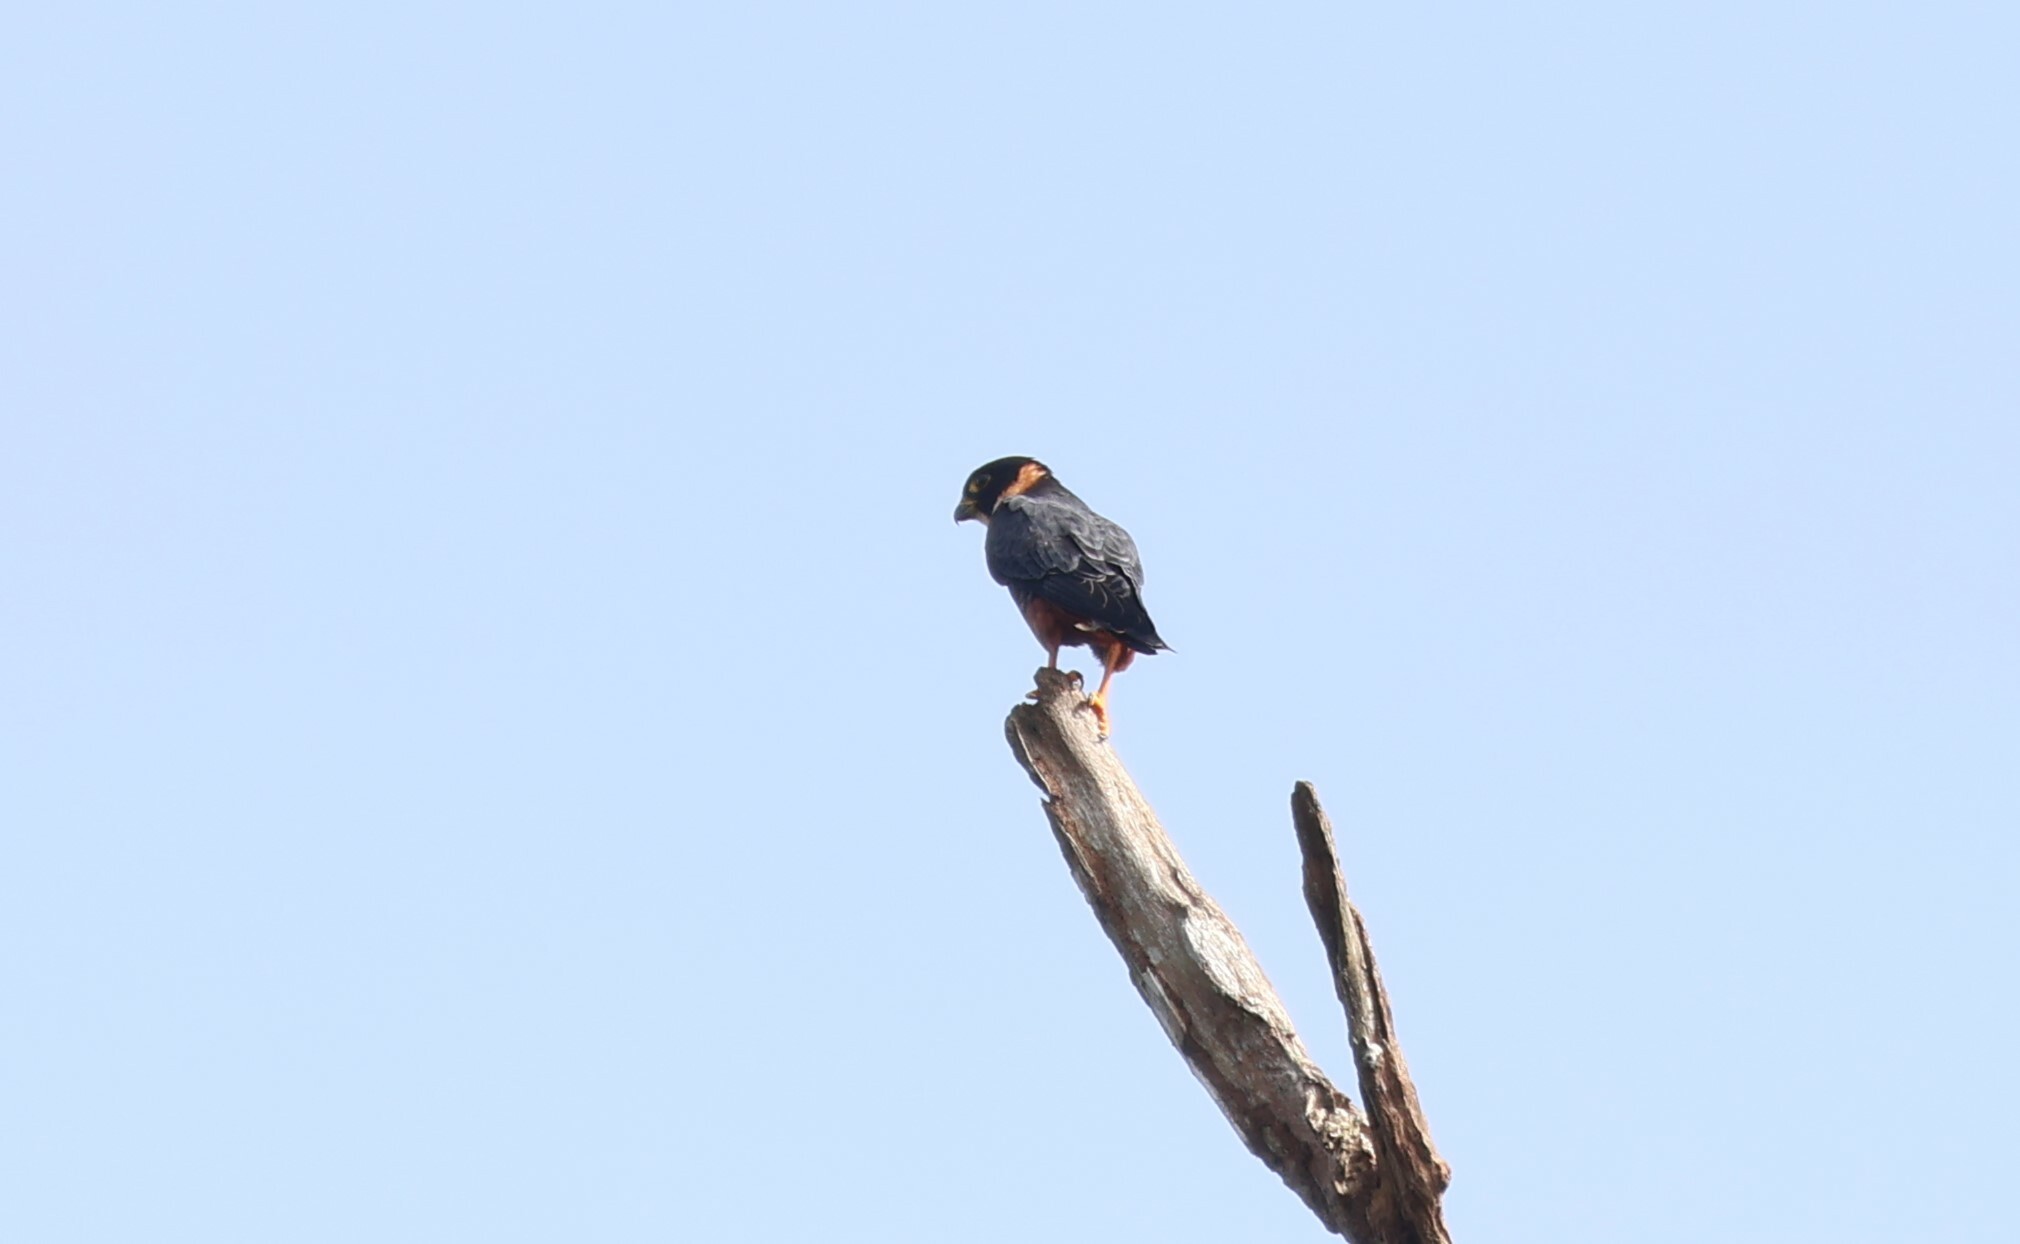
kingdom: Animalia
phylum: Chordata
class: Aves
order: Falconiformes
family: Falconidae
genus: Falco
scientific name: Falco rufigularis
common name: Bat falcon
